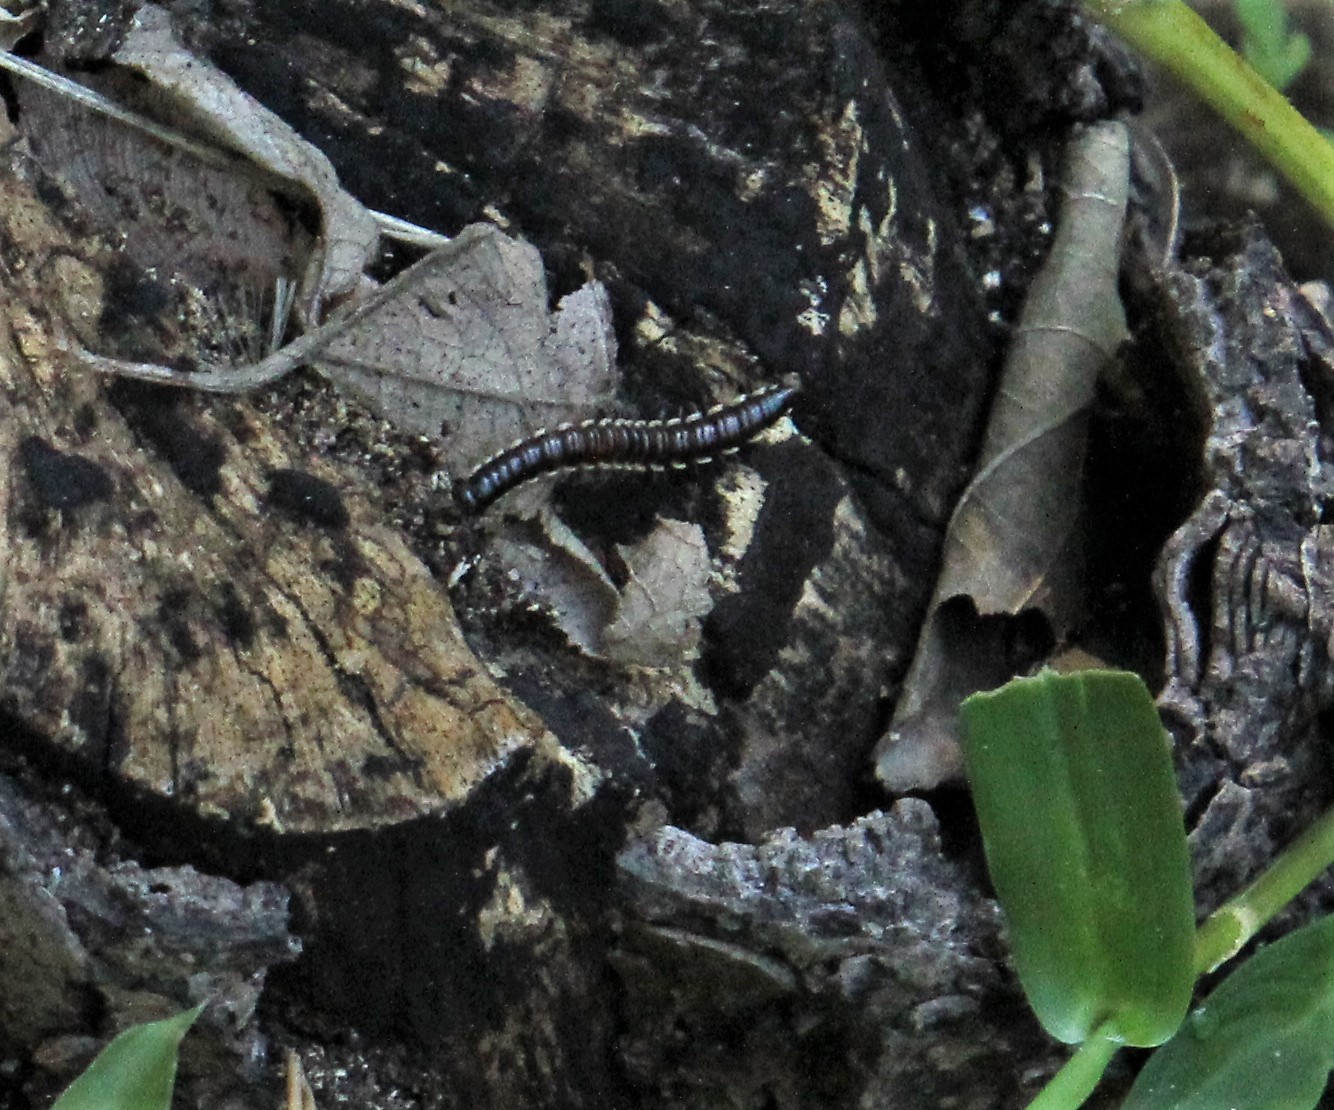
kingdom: Animalia
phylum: Arthropoda
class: Diplopoda
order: Polydesmida
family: Paradoxosomatidae
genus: Orthomorpha
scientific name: Orthomorpha coarctata
